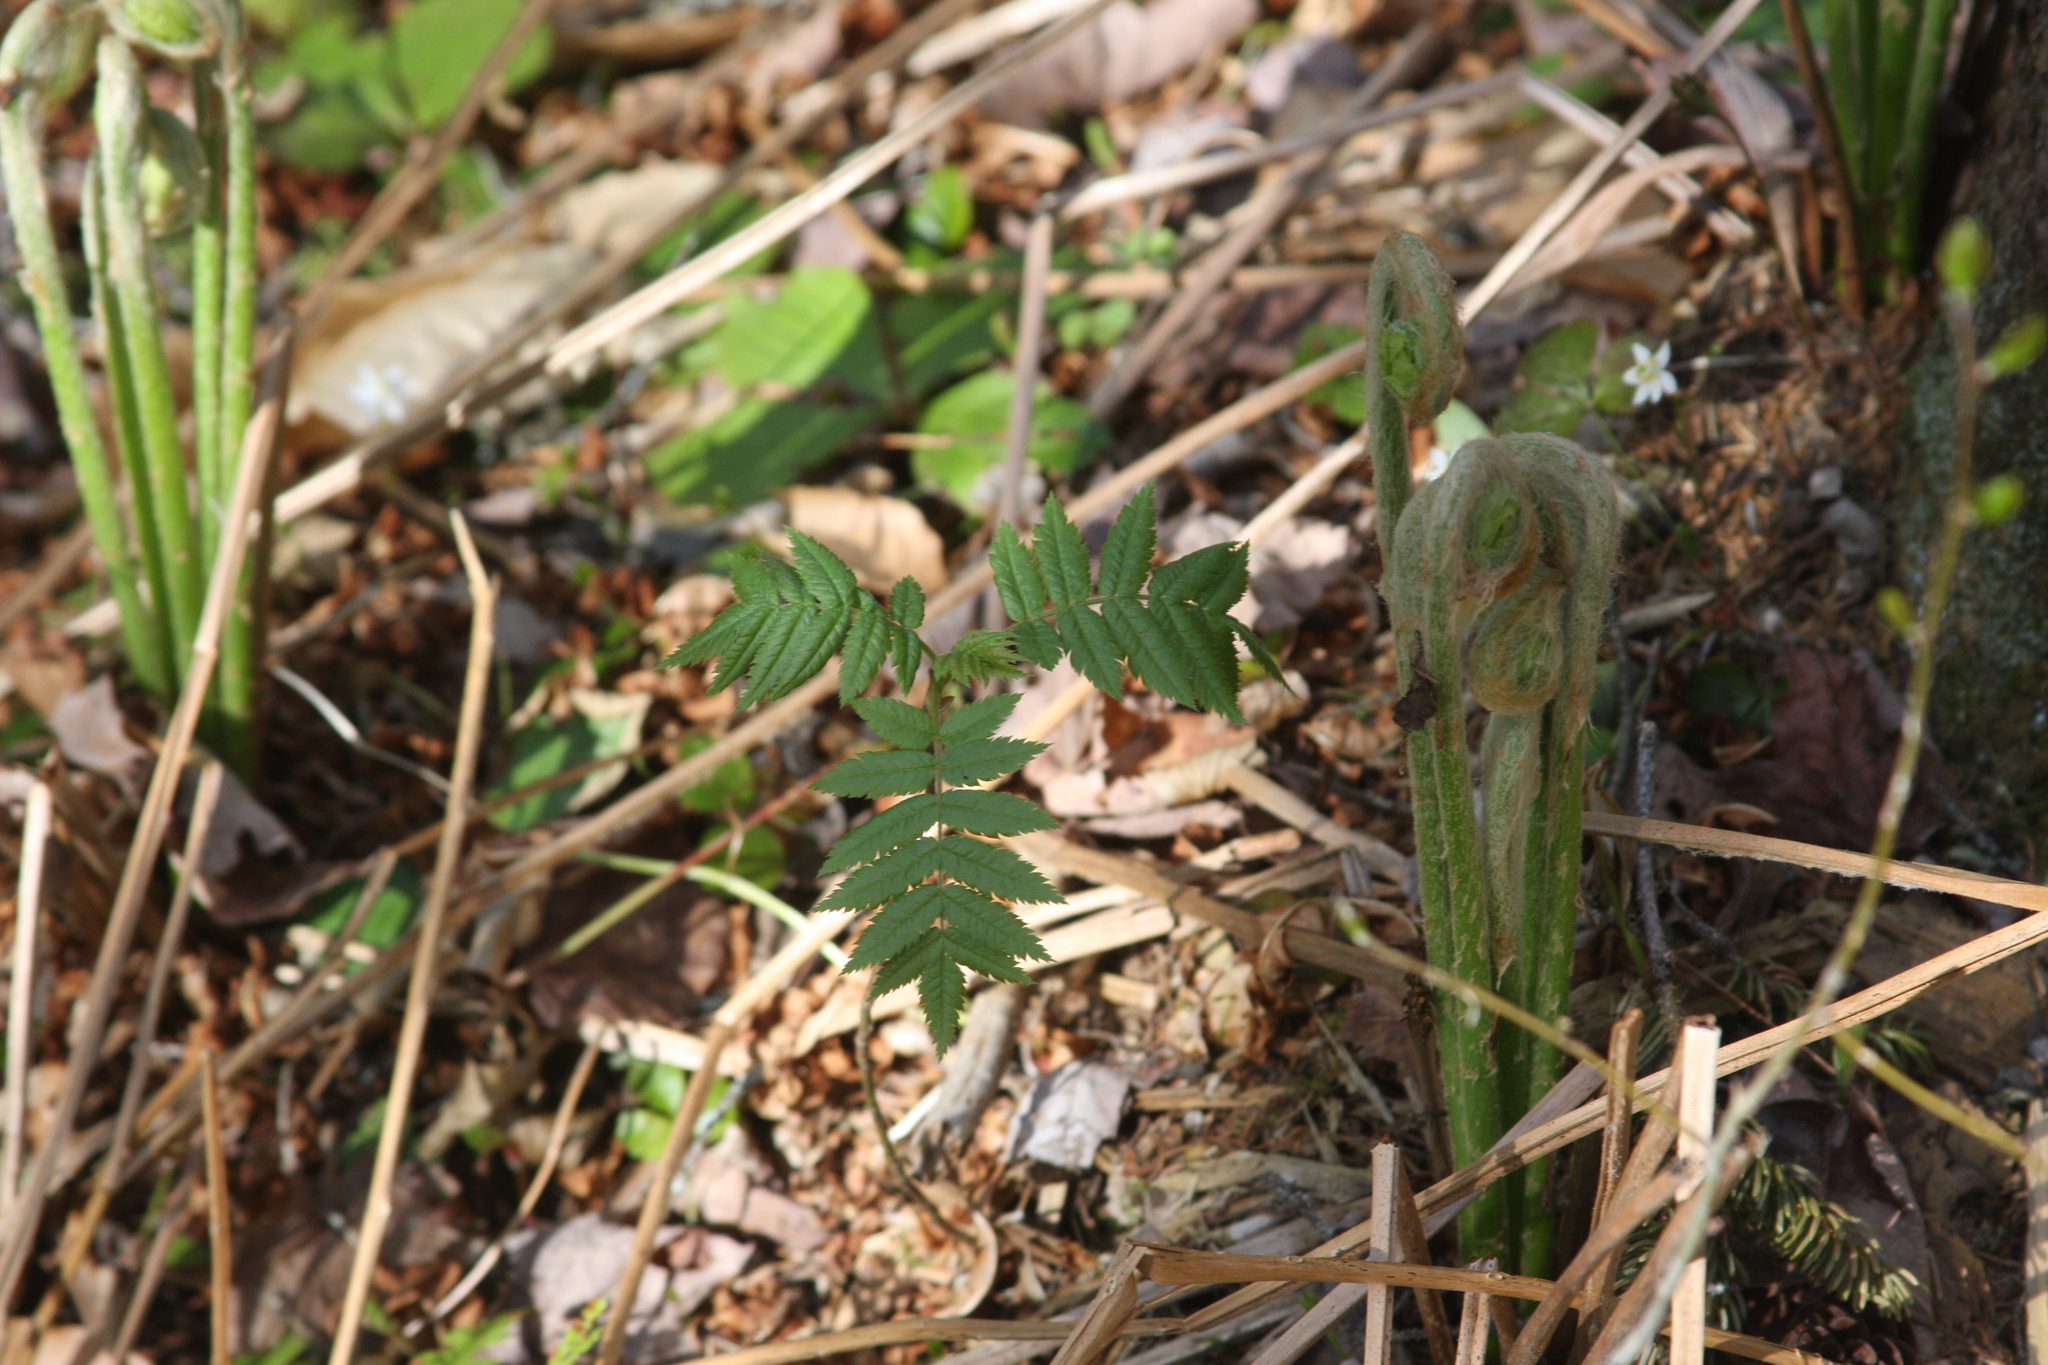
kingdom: Plantae
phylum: Tracheophyta
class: Polypodiopsida
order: Osmundales
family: Osmundaceae
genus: Claytosmunda
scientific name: Claytosmunda claytoniana
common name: Clayton's fern
